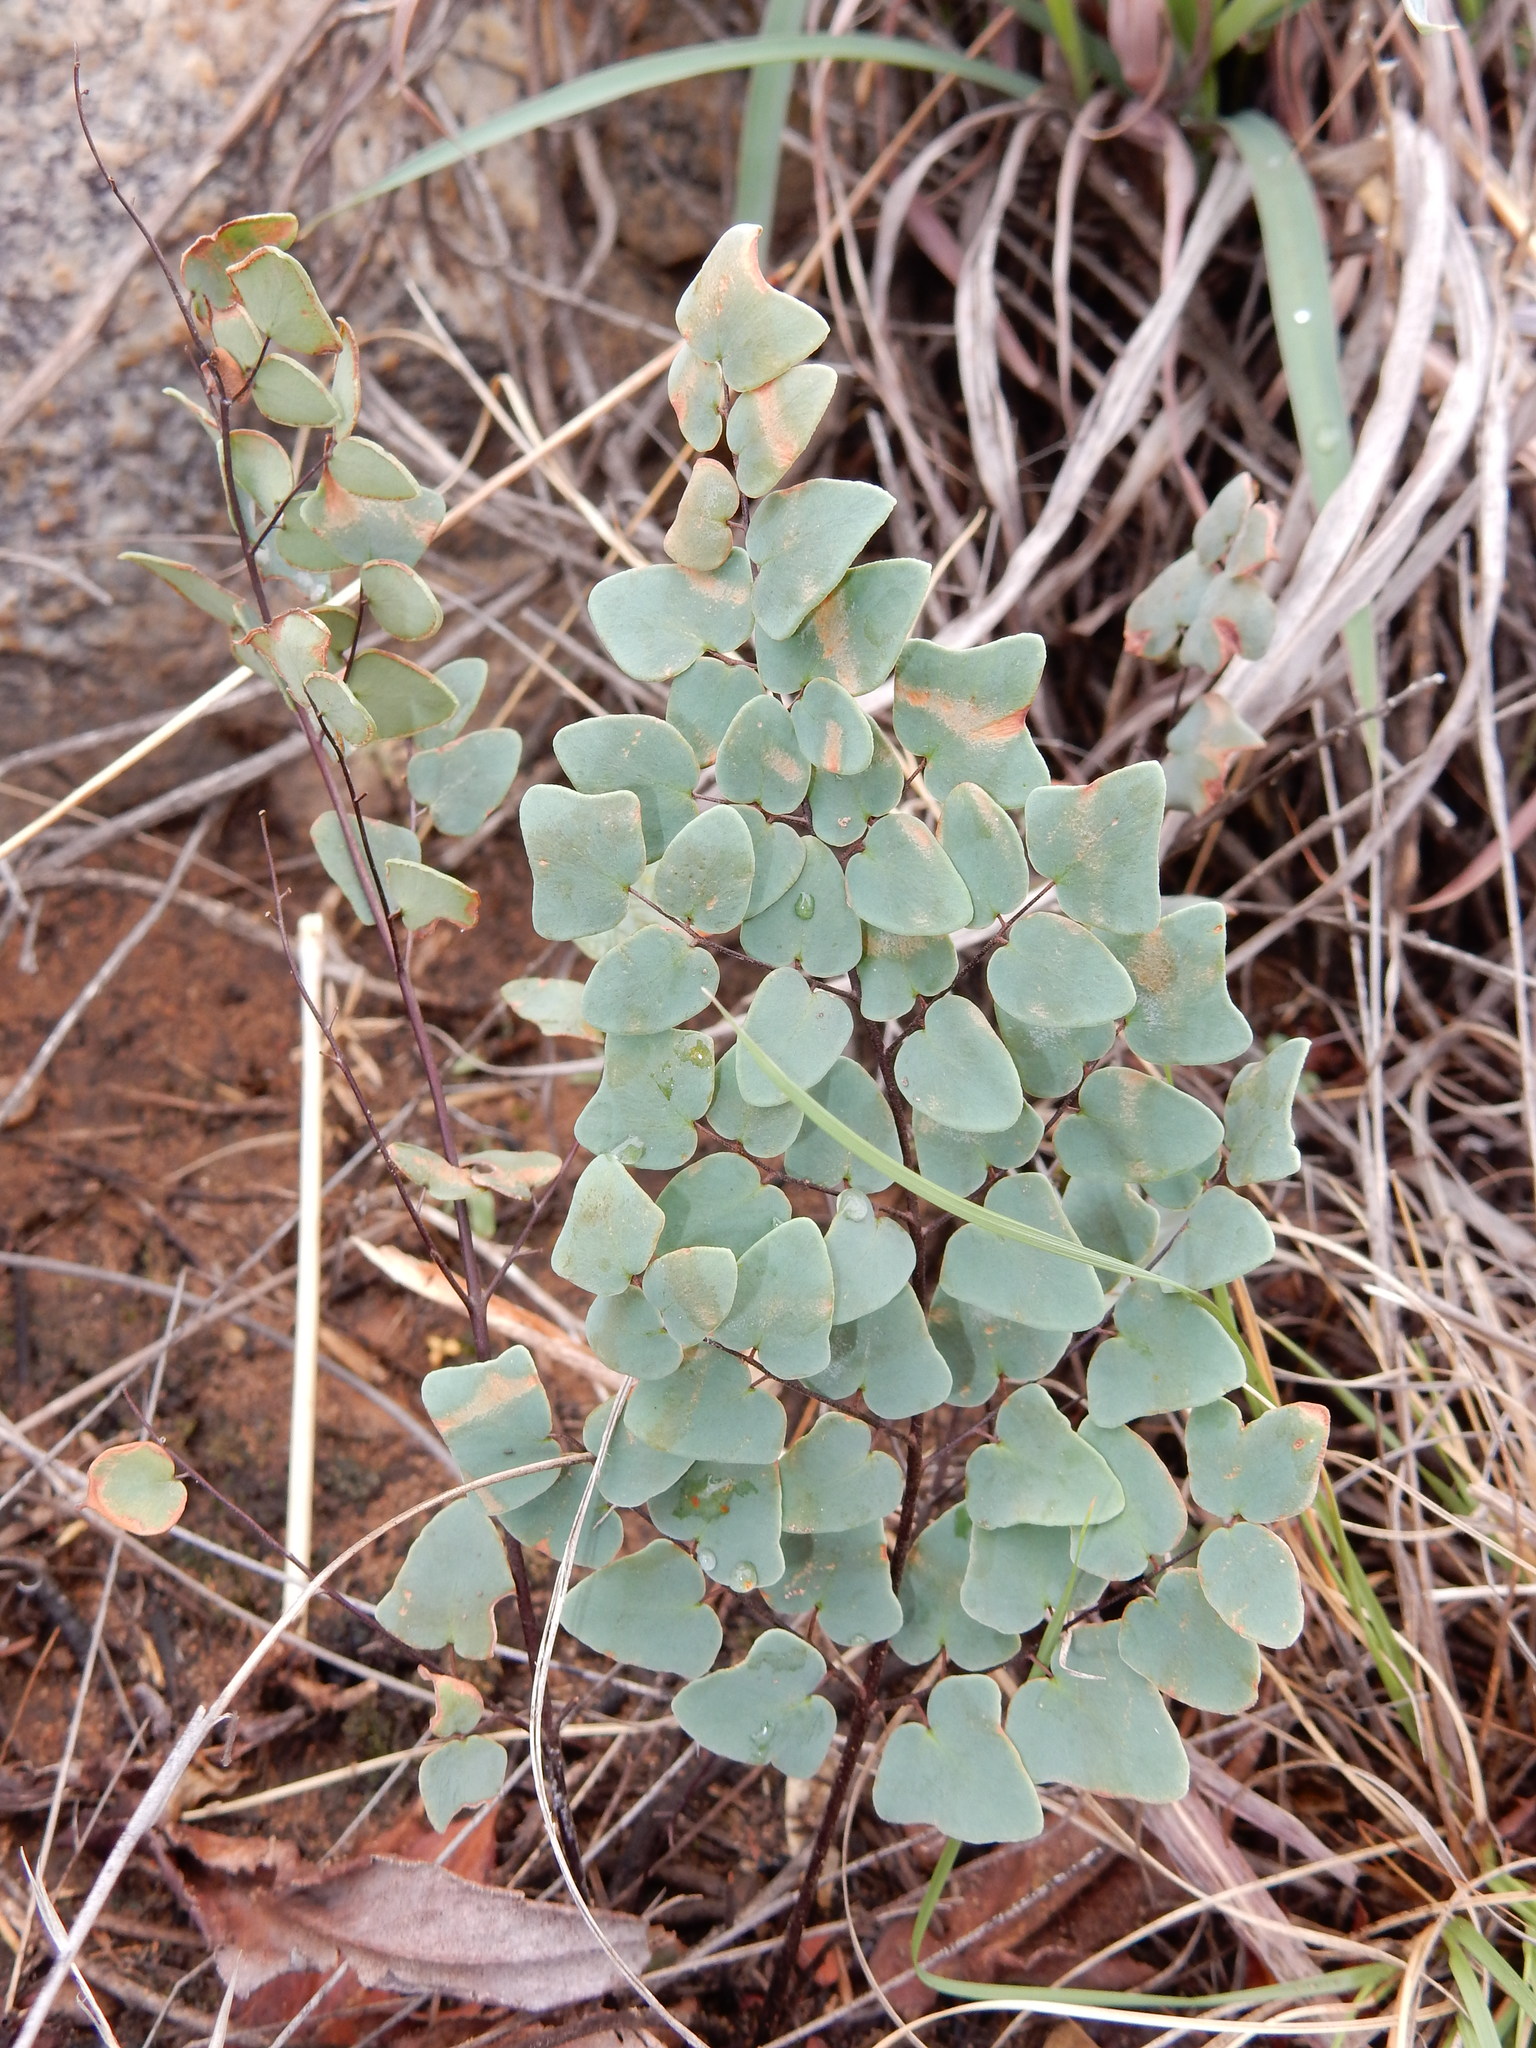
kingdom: Plantae
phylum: Tracheophyta
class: Polypodiopsida
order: Polypodiales
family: Pteridaceae
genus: Pellaea
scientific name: Pellaea calomelanos
